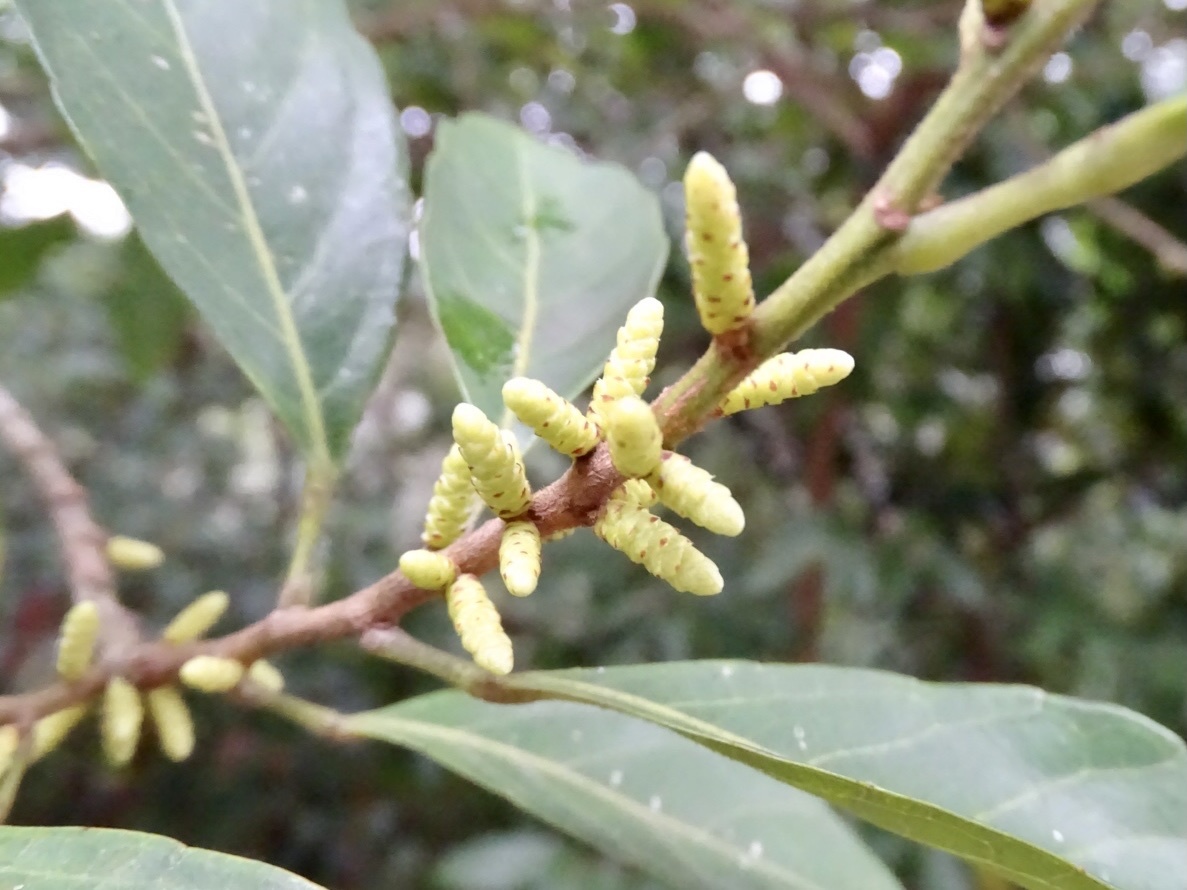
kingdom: Plantae
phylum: Tracheophyta
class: Magnoliopsida
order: Malpighiales
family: Phyllanthaceae
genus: Aporosa
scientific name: Aporosa octandra
